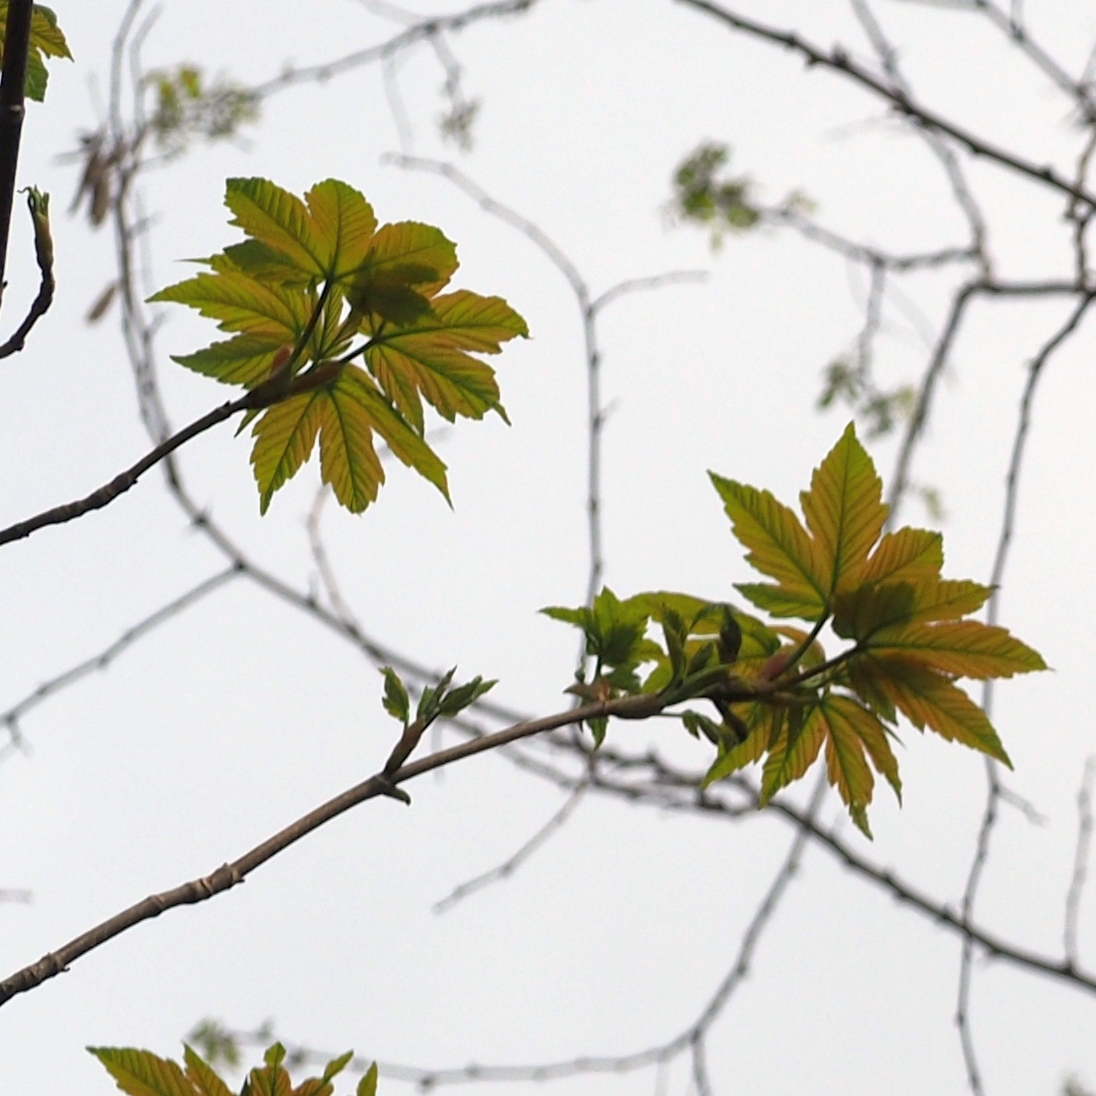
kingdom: Plantae
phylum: Tracheophyta
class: Magnoliopsida
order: Sapindales
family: Sapindaceae
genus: Acer
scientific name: Acer pseudoplatanus
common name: Sycamore
